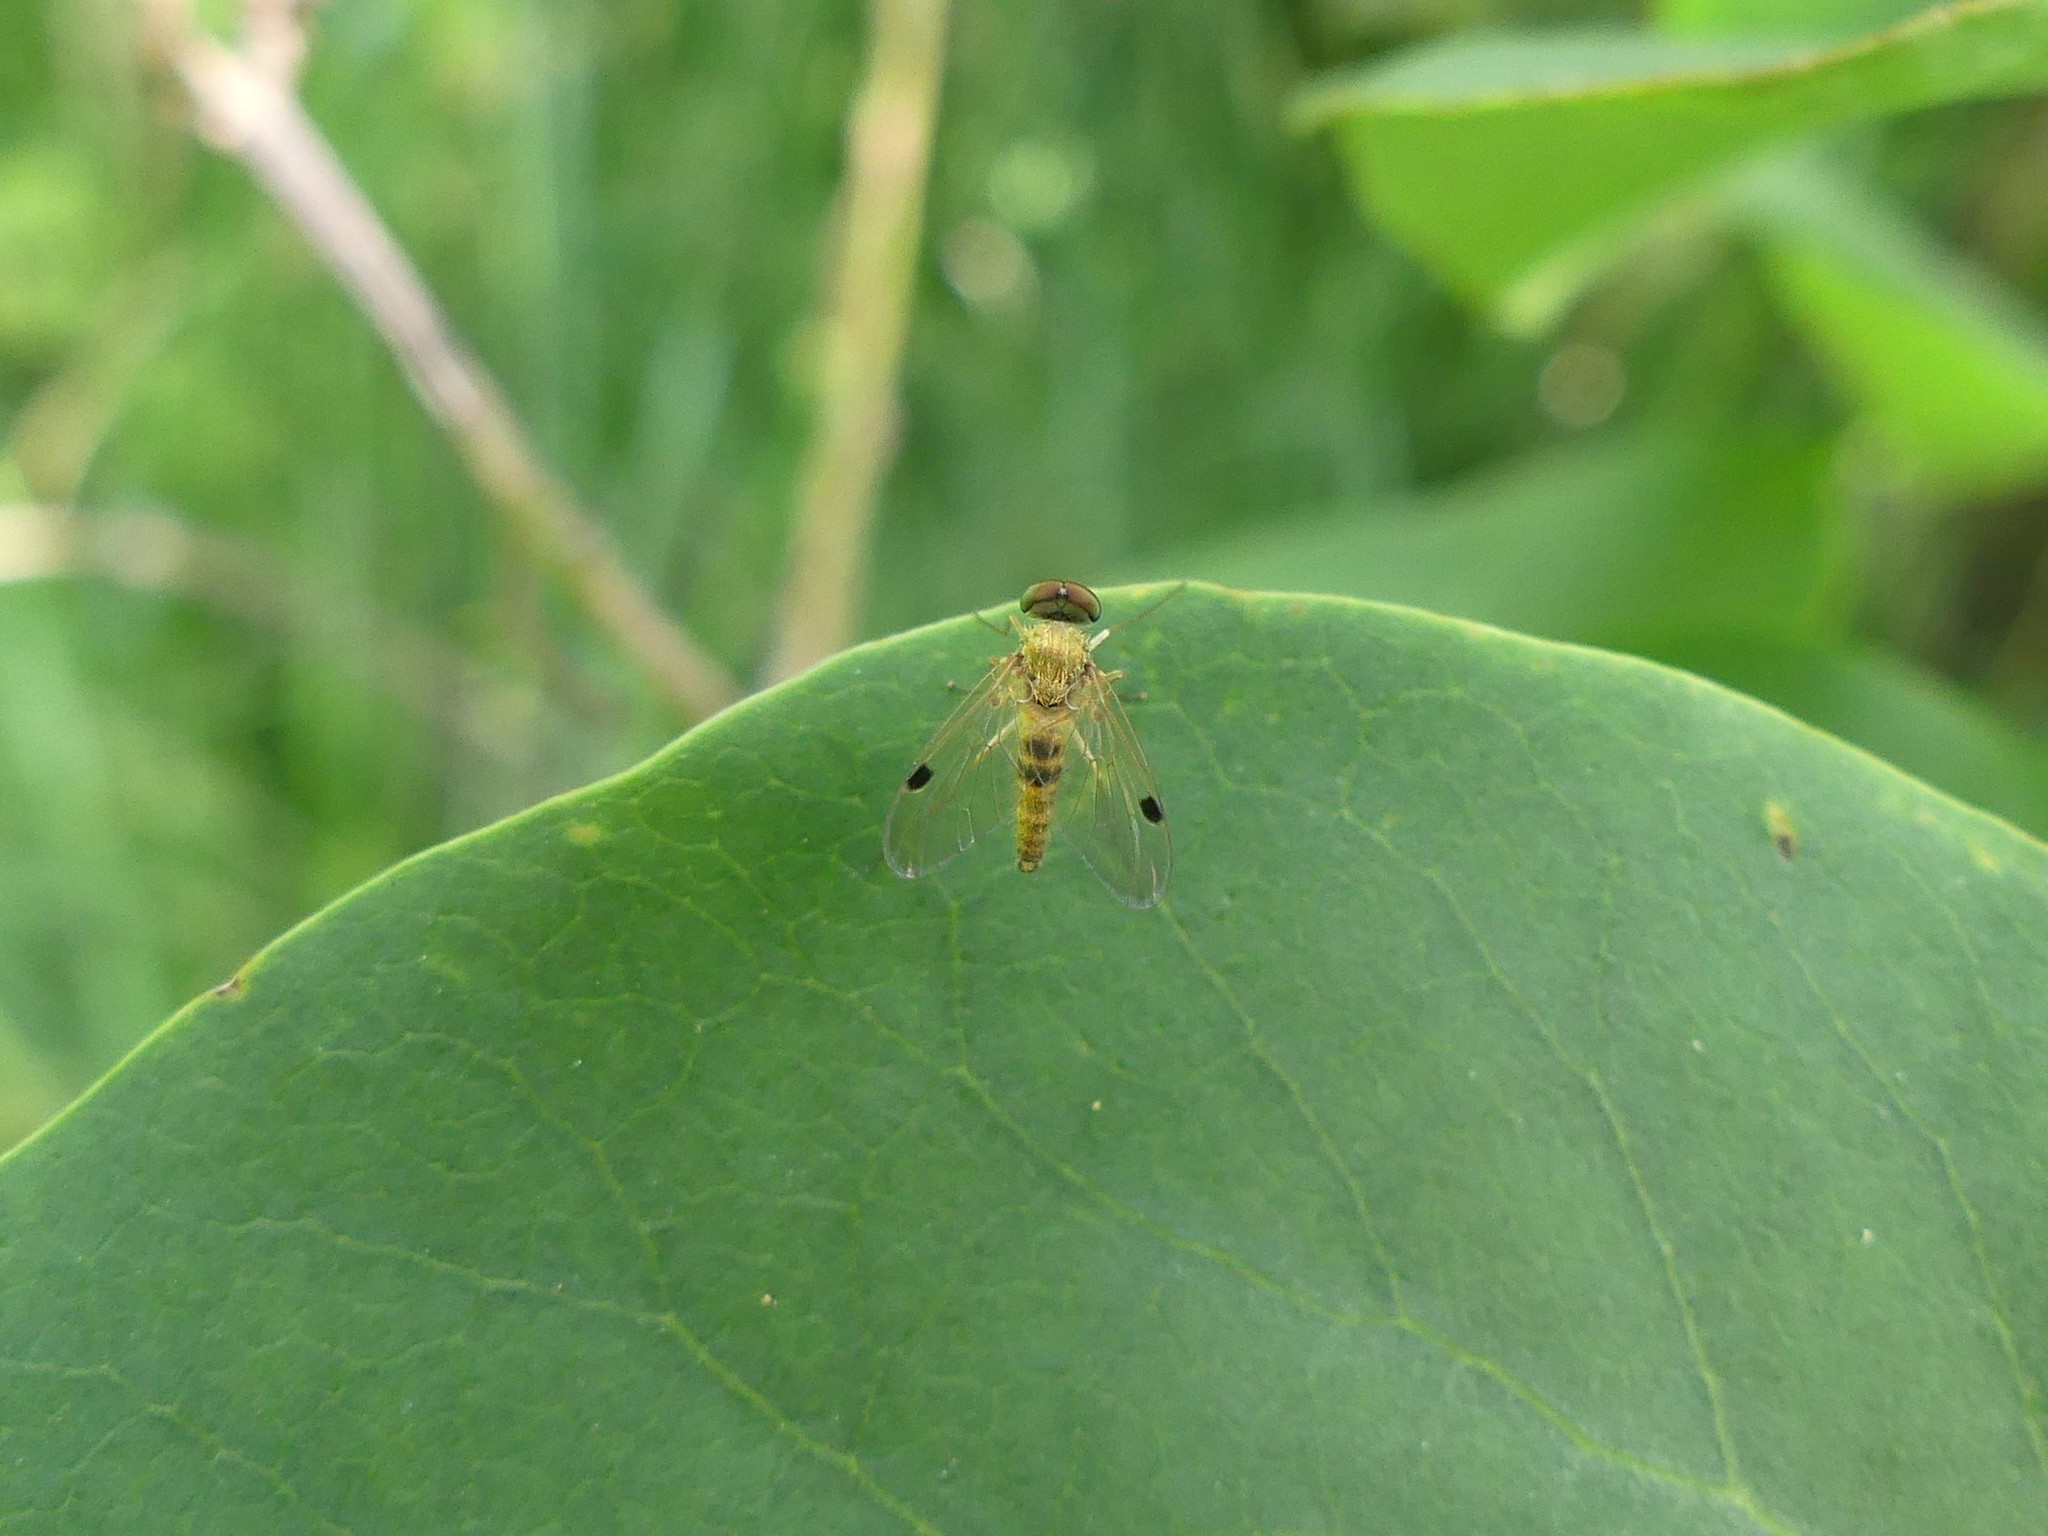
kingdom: Animalia
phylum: Arthropoda
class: Insecta
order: Diptera
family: Rhagionidae
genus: Chrysopilus
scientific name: Chrysopilus modestus
